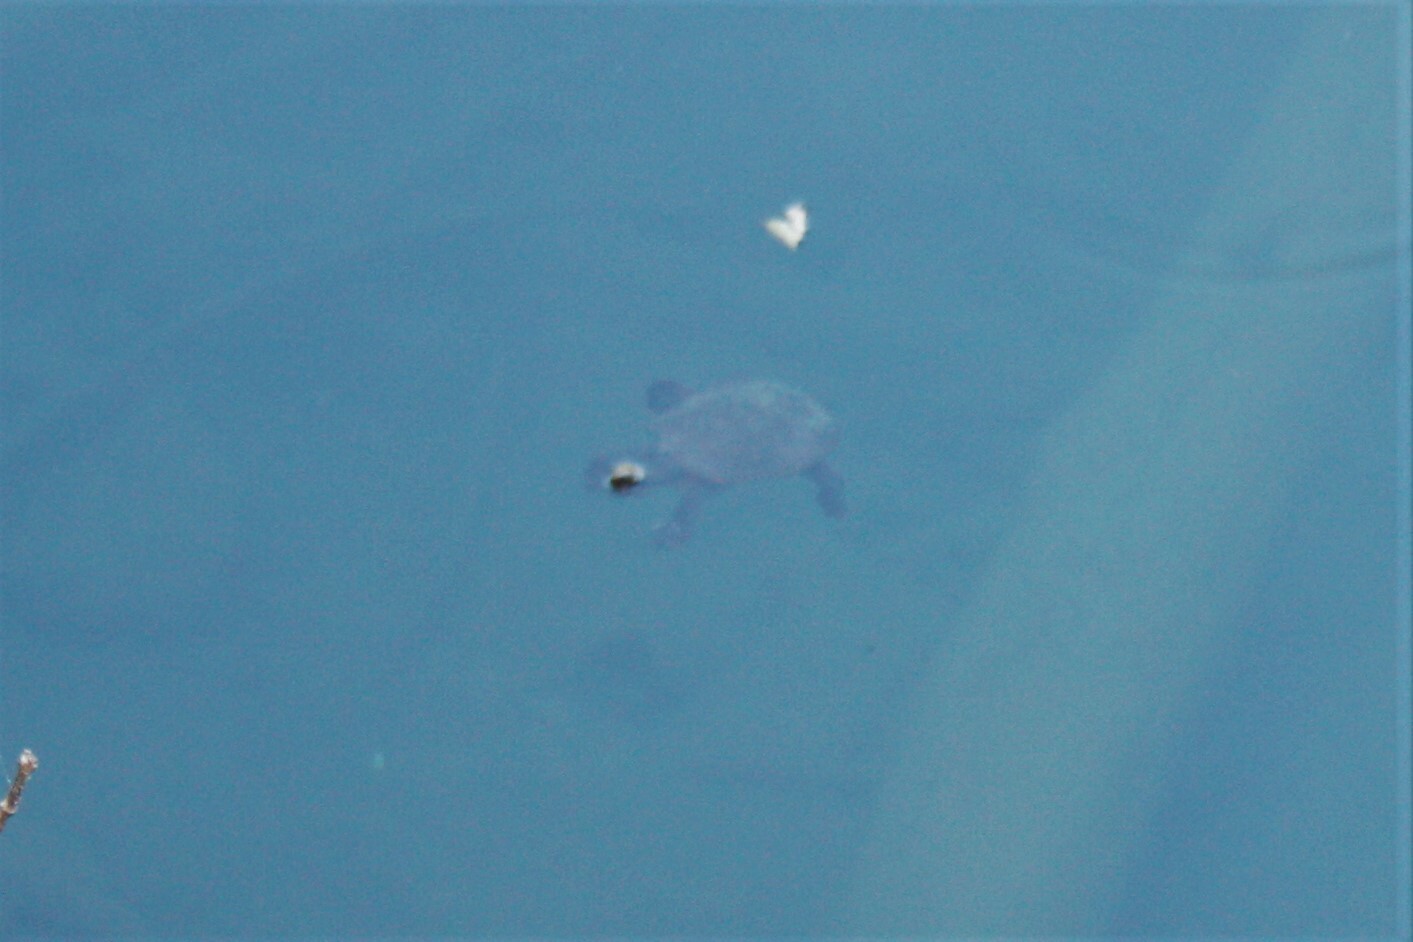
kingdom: Animalia
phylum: Chordata
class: Testudines
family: Chelidae
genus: Myuchelys
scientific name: Myuchelys latisternum
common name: Serrated snapping turtle
